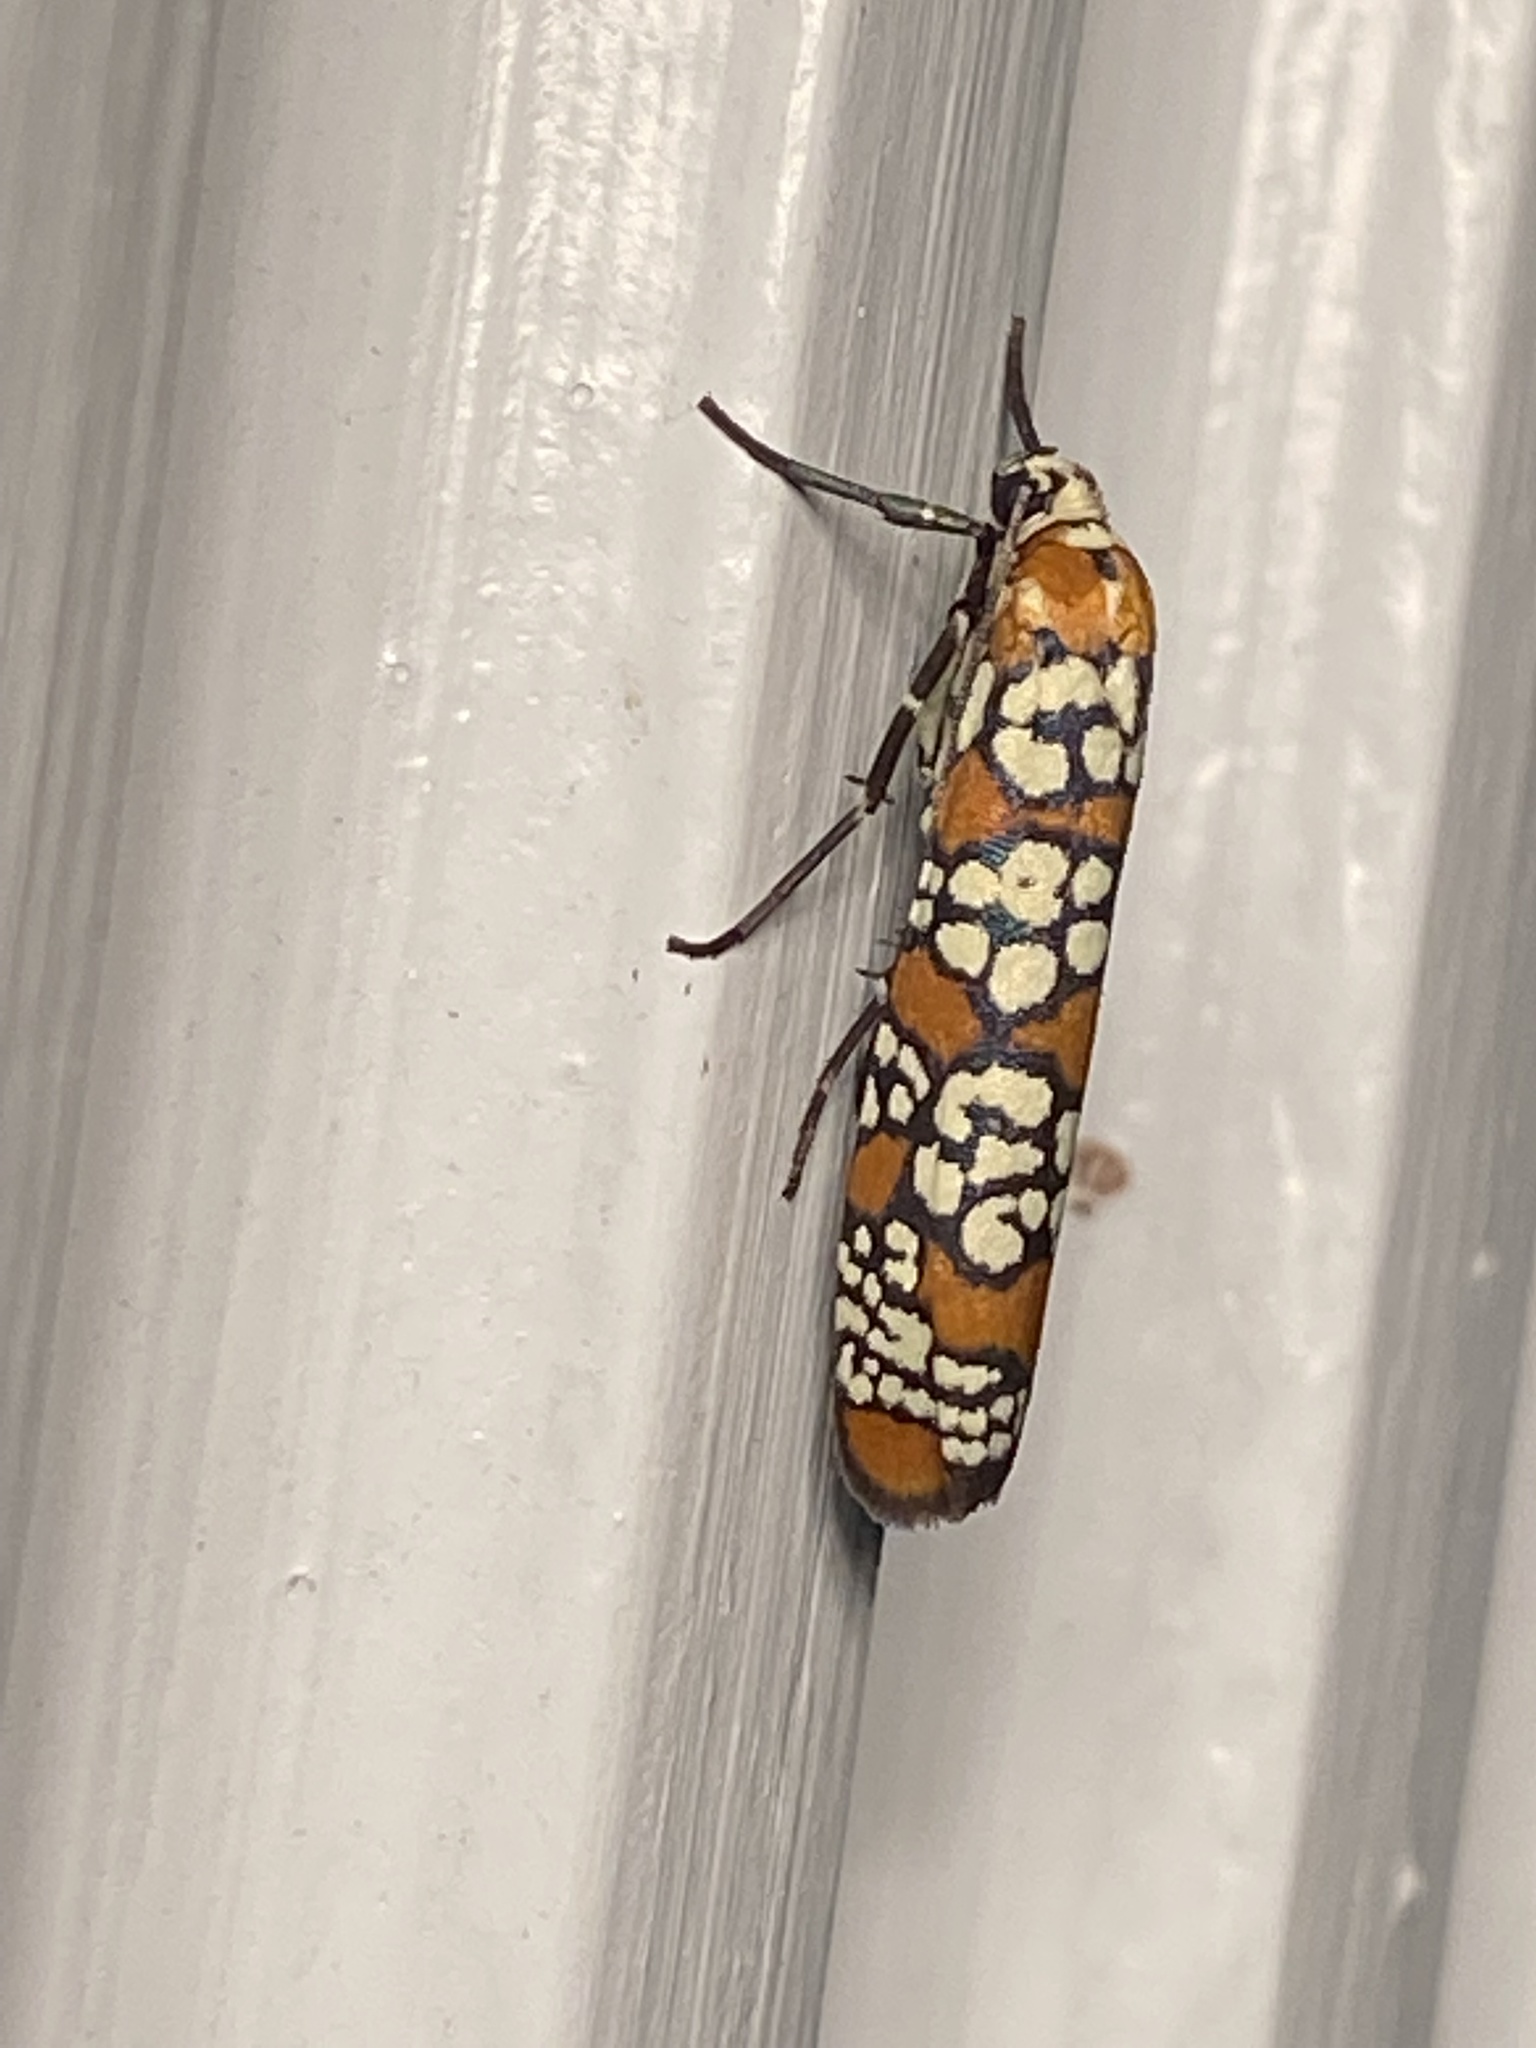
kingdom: Animalia
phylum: Arthropoda
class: Insecta
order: Lepidoptera
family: Attevidae
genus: Atteva
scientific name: Atteva punctella
